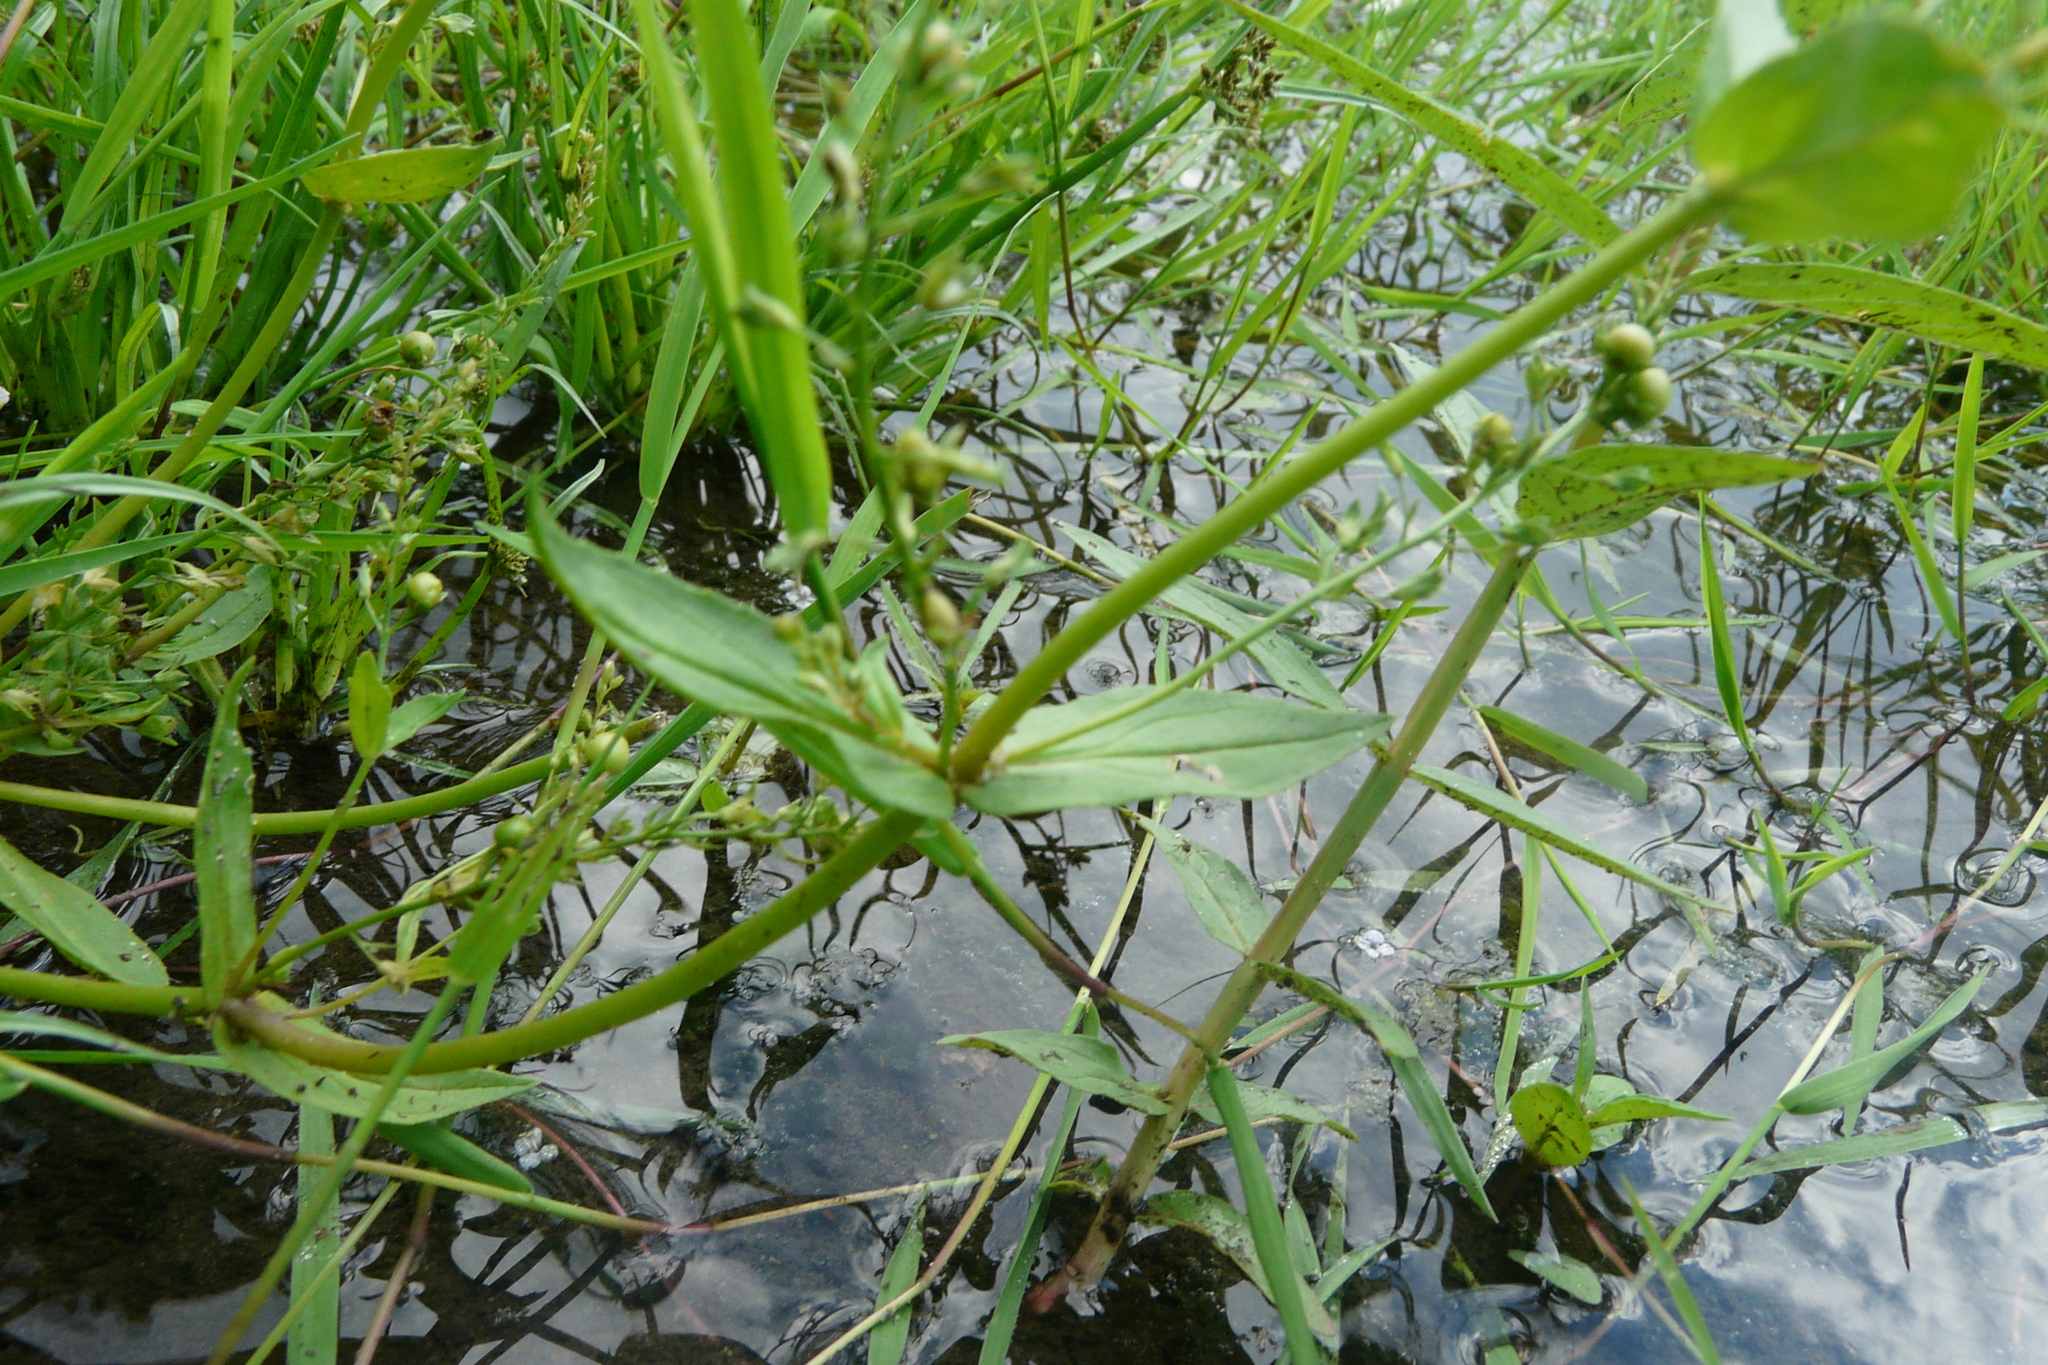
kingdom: Plantae
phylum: Tracheophyta
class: Magnoliopsida
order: Lamiales
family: Plantaginaceae
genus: Veronica
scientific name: Veronica anagallis-aquatica
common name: Water speedwell
